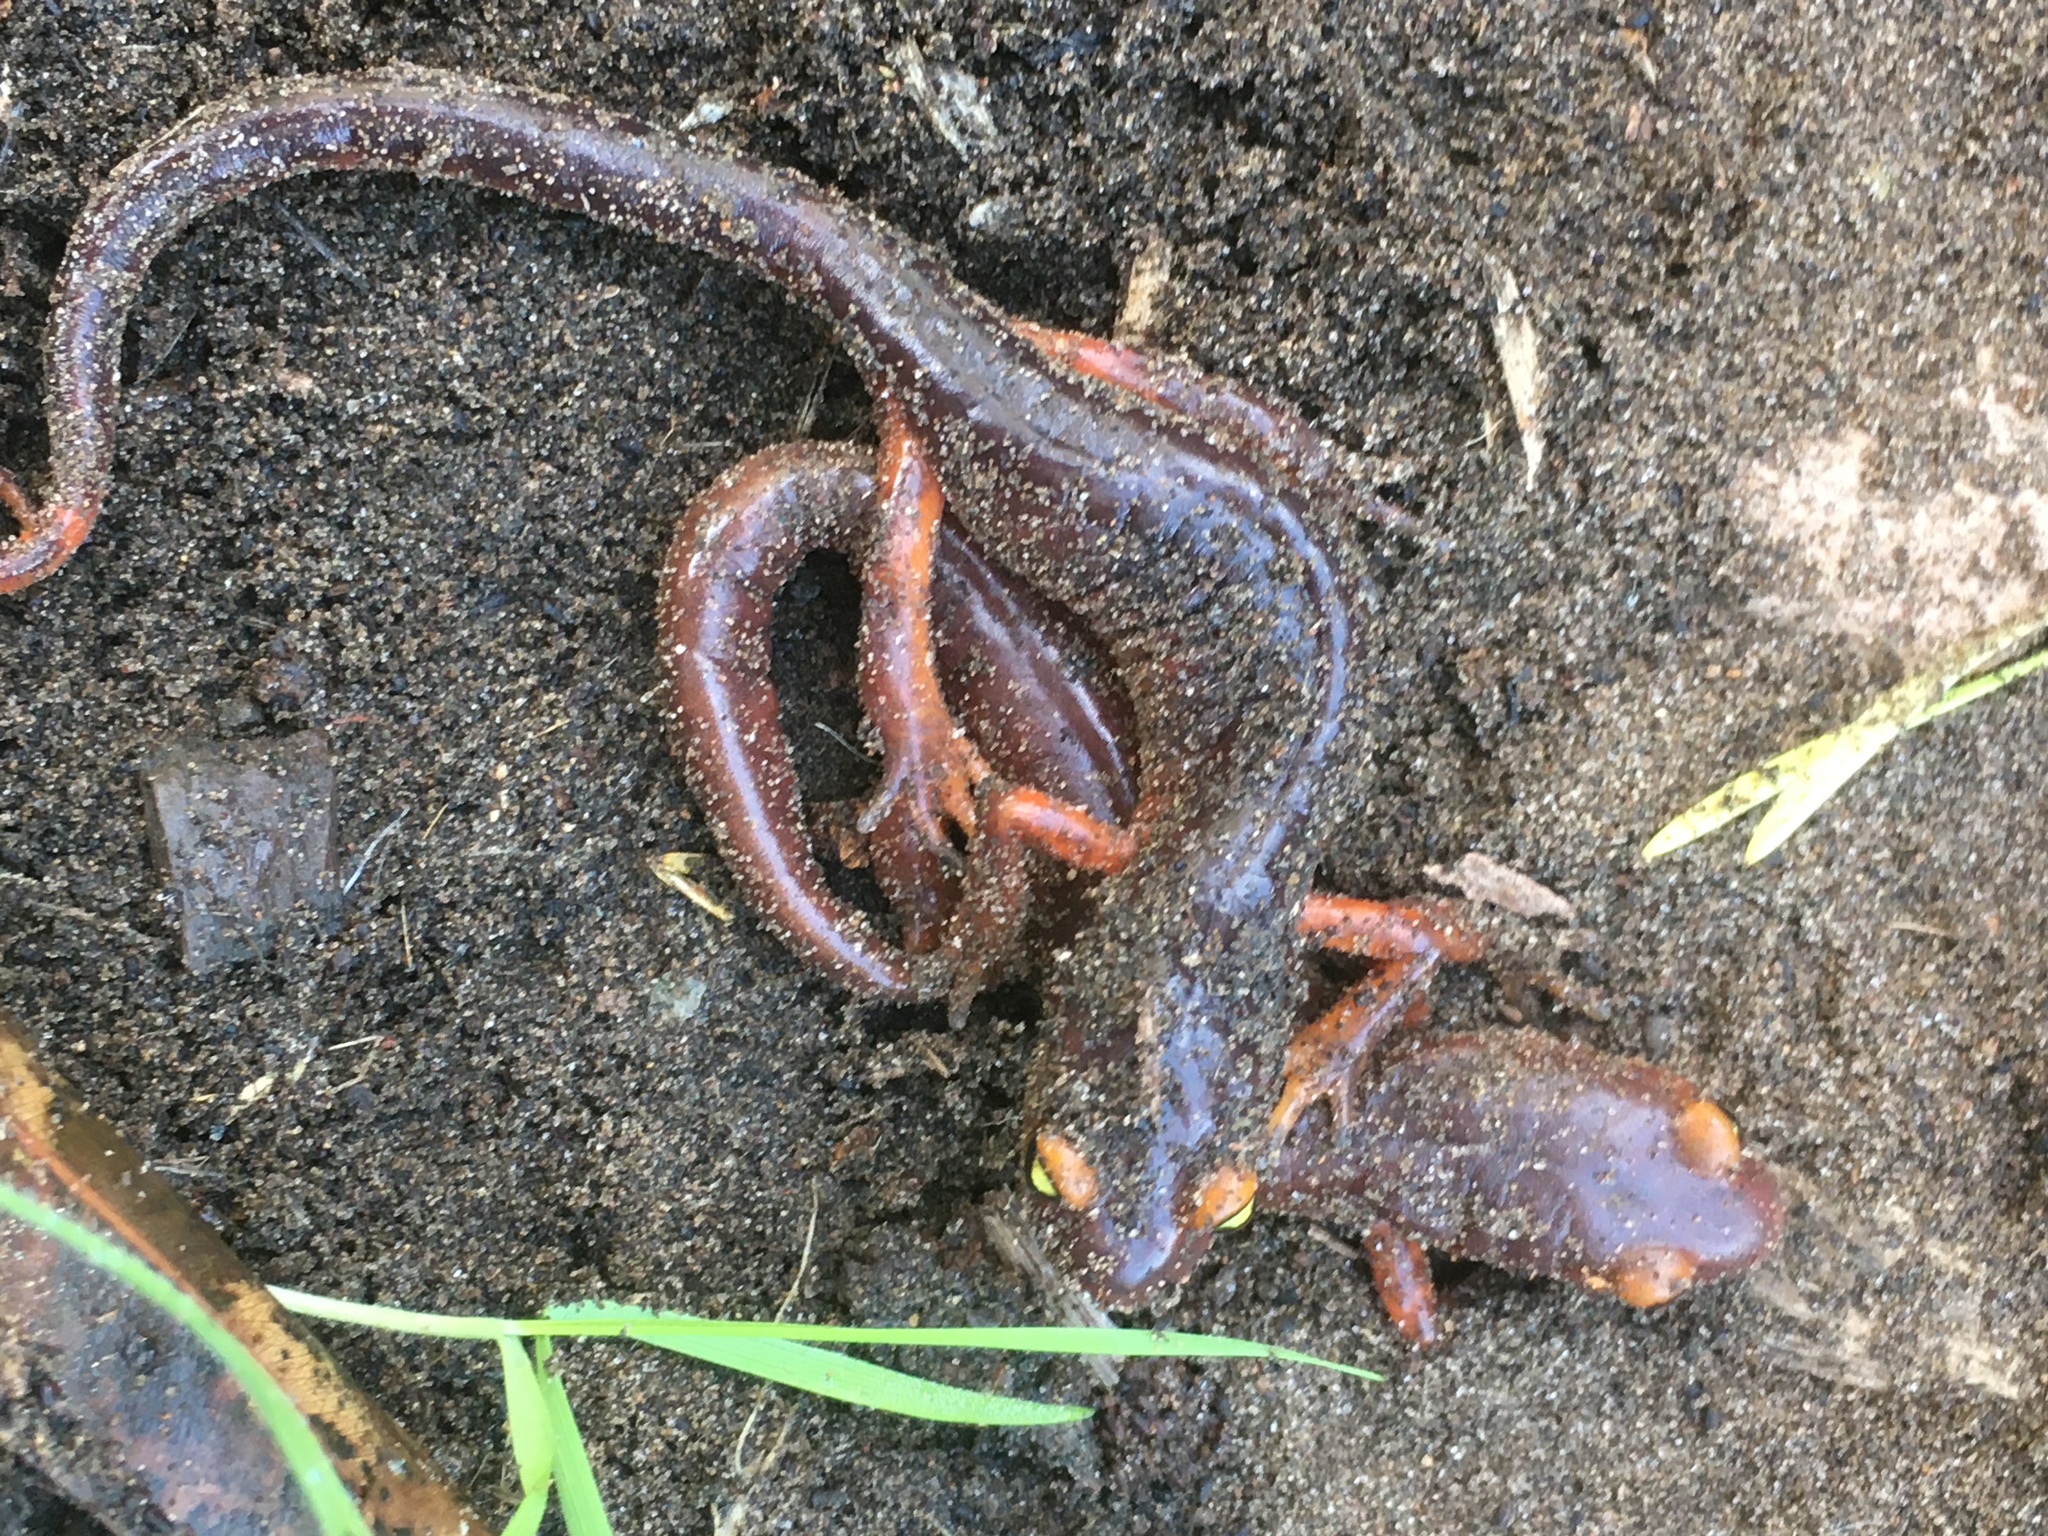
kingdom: Animalia
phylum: Chordata
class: Amphibia
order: Caudata
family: Plethodontidae
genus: Ensatina
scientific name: Ensatina eschscholtzii
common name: Ensatina
